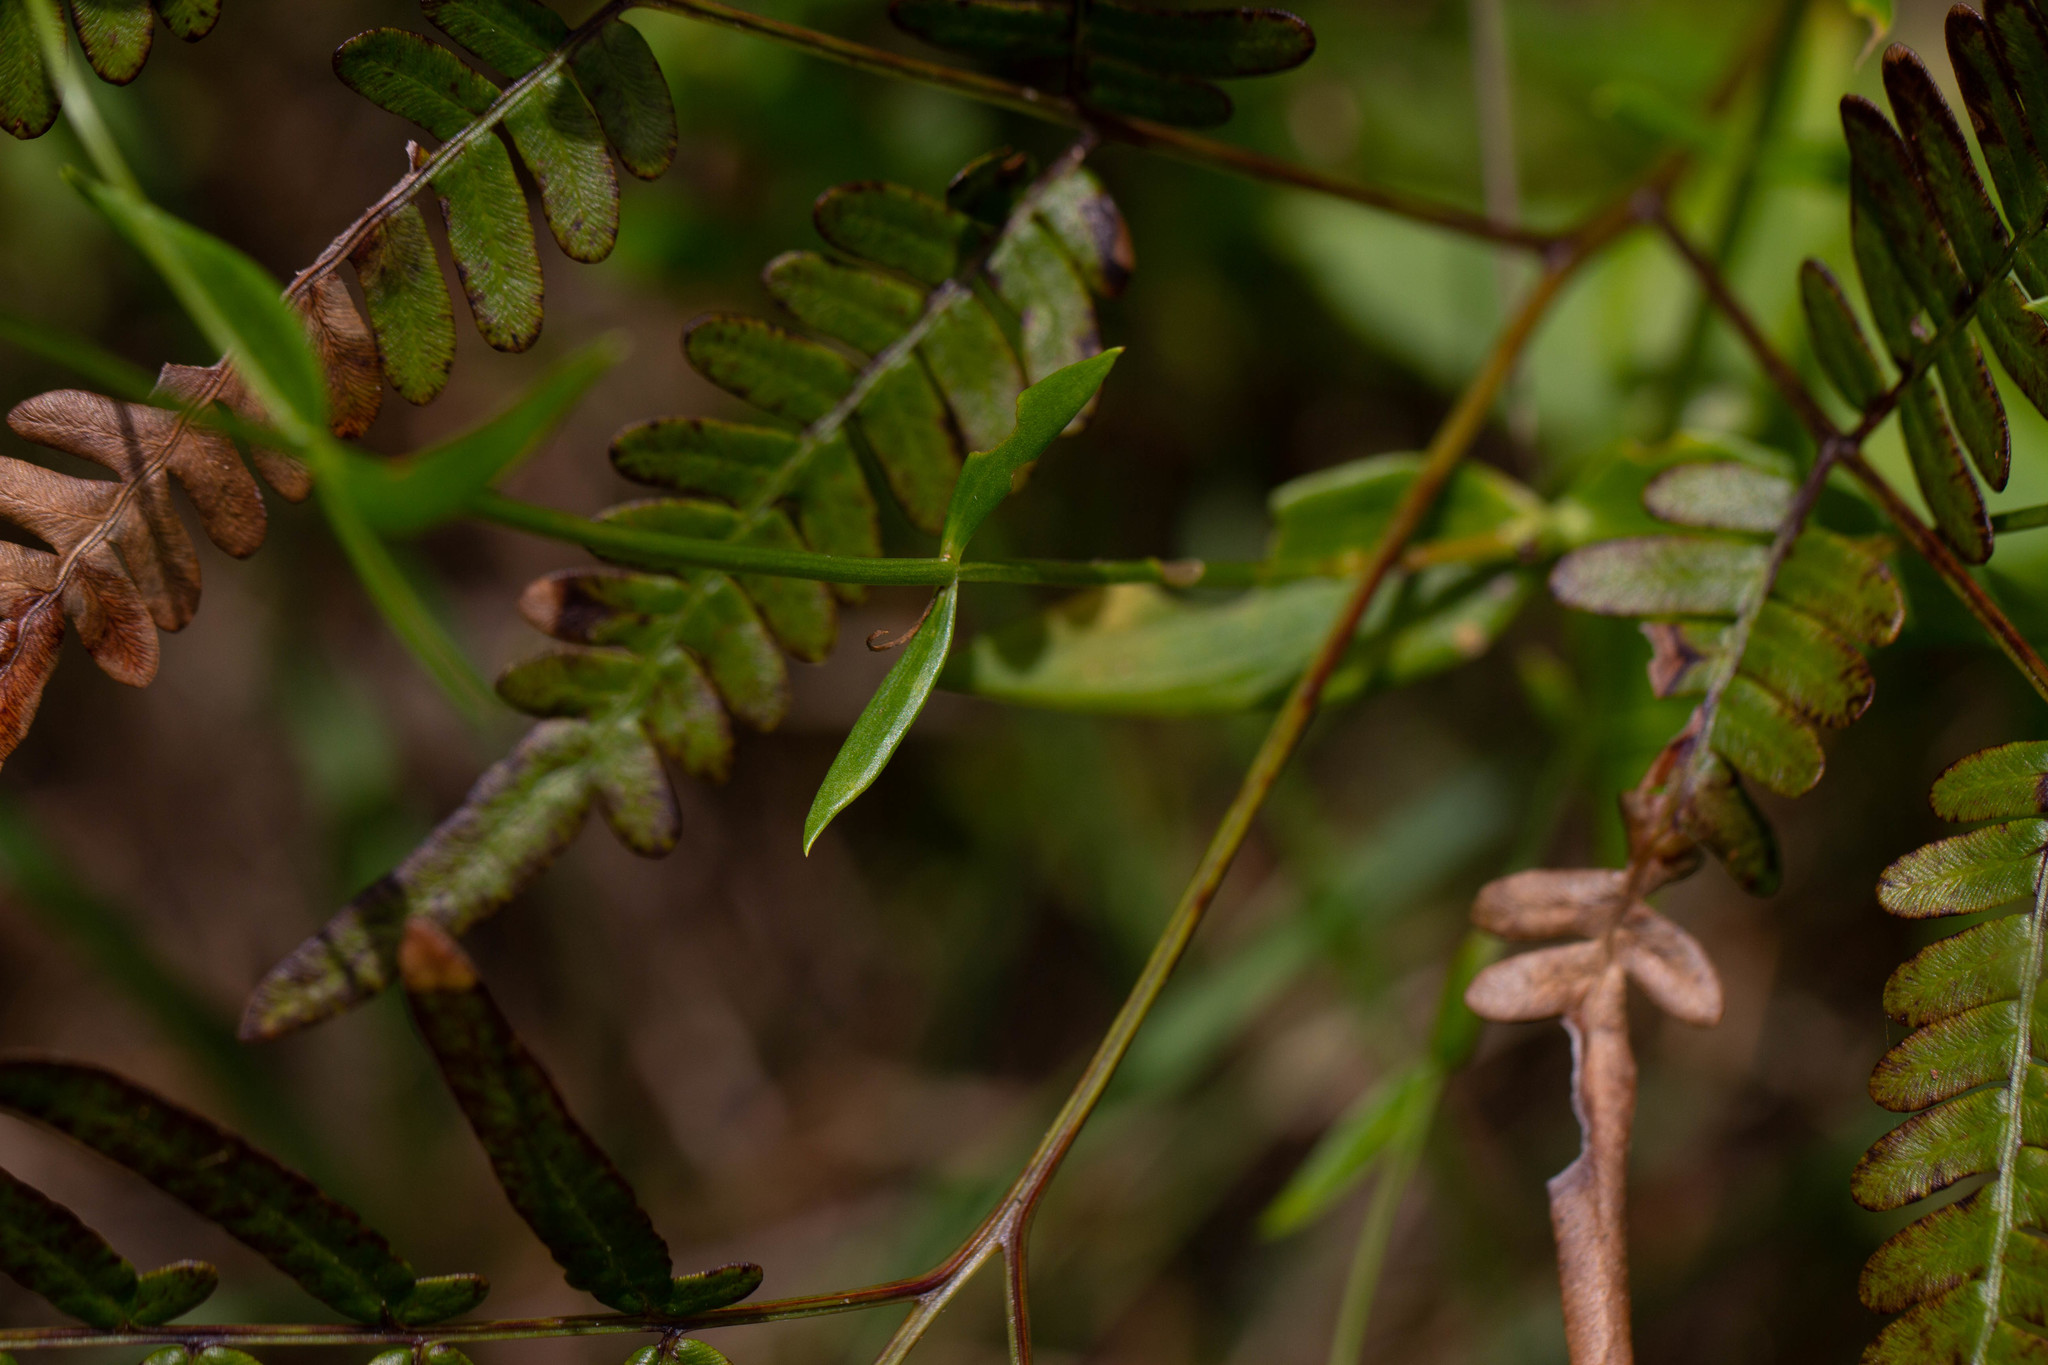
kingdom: Plantae
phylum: Tracheophyta
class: Magnoliopsida
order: Gentianales
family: Gentianaceae
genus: Sabatia
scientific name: Sabatia difformis
